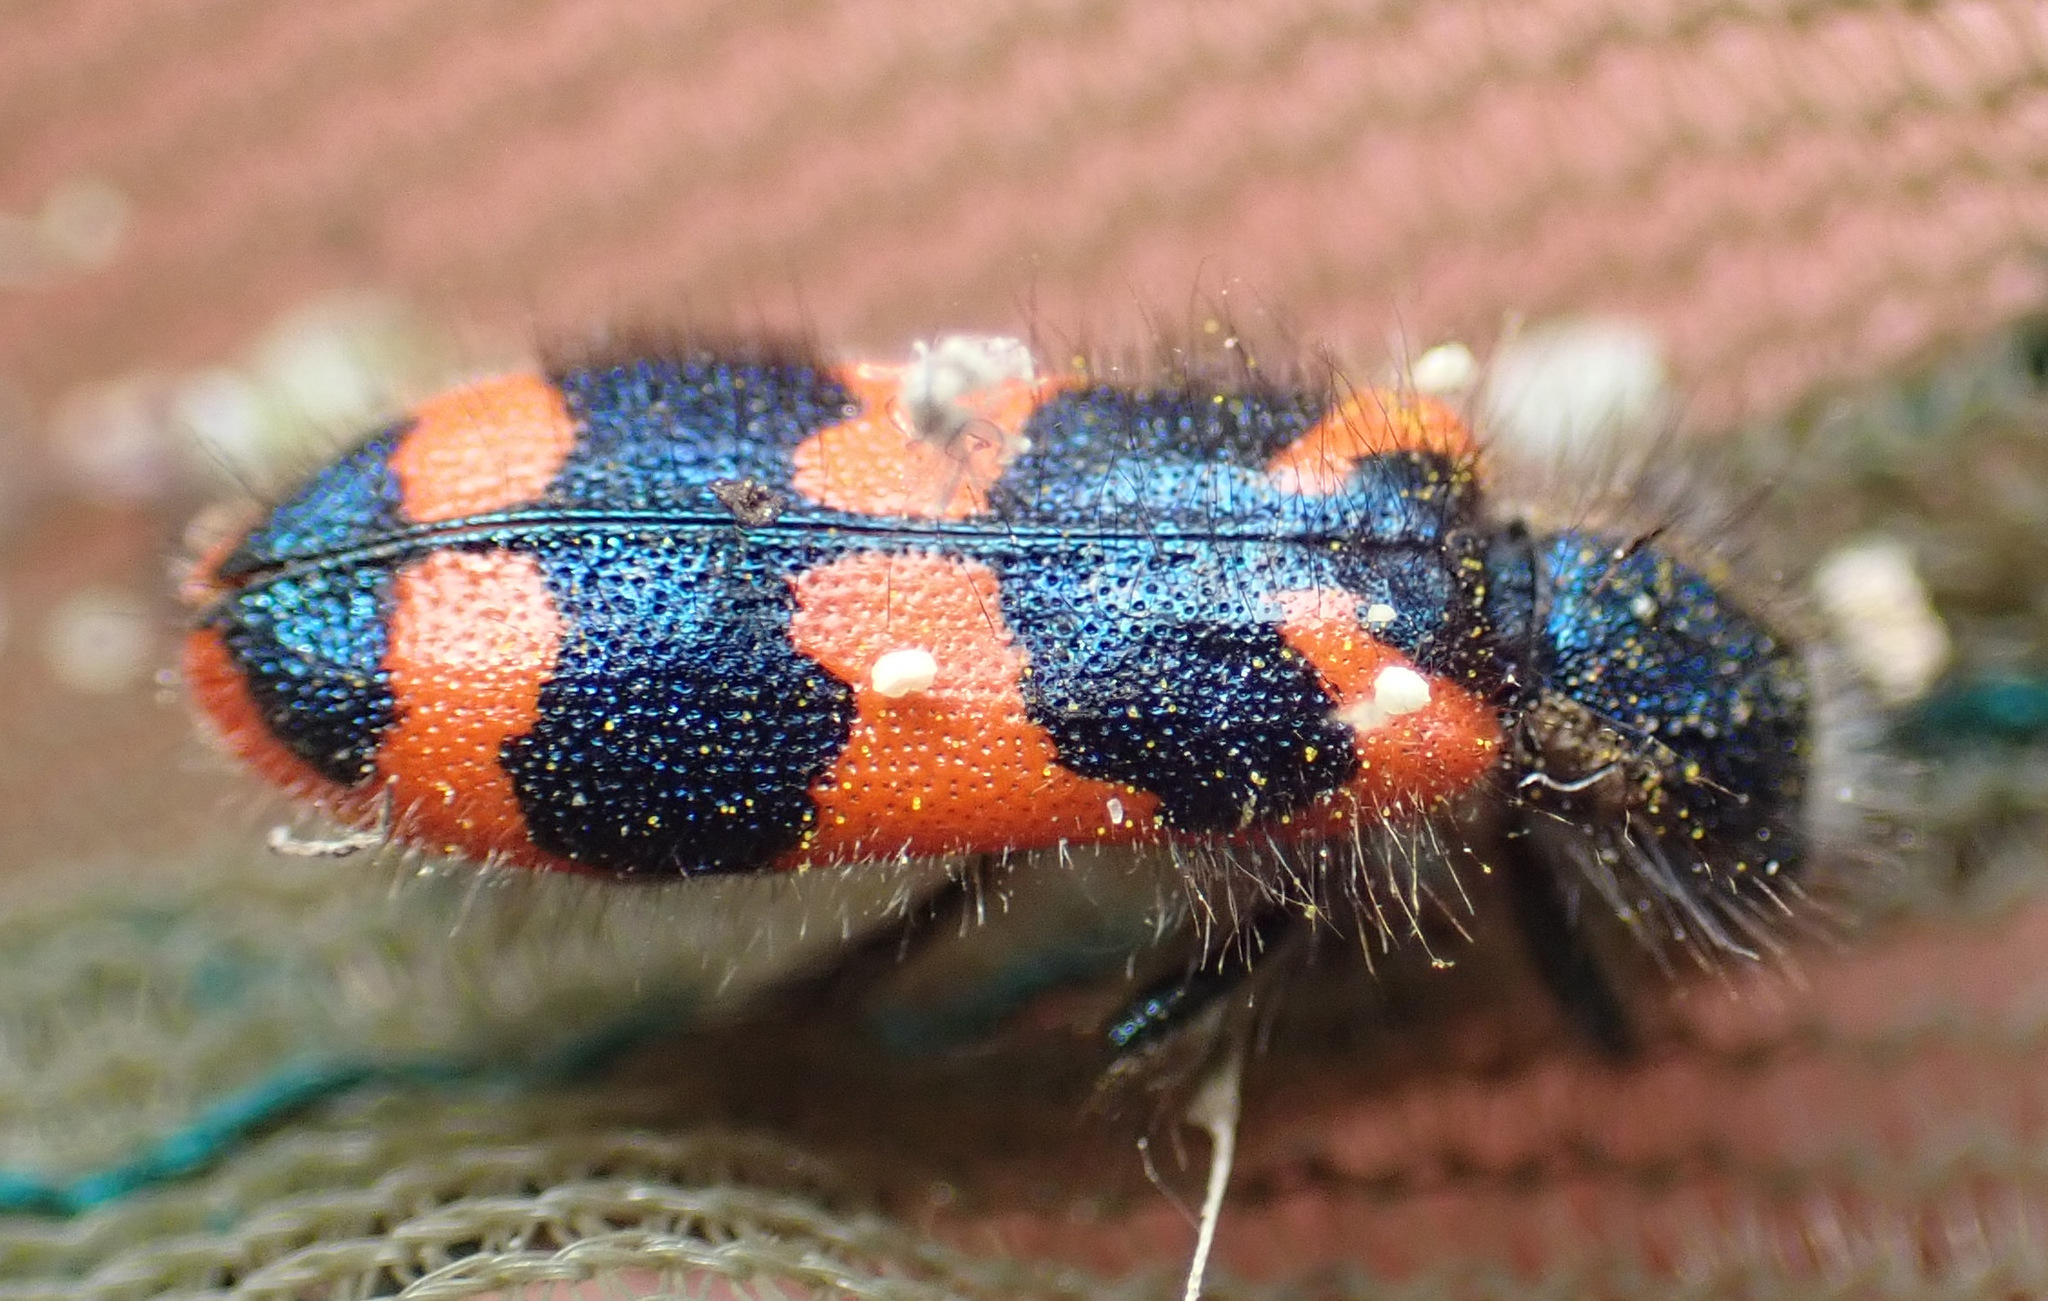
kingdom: Animalia
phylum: Arthropoda
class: Insecta
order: Coleoptera
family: Cleridae
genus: Trichodes
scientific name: Trichodes alvearius
